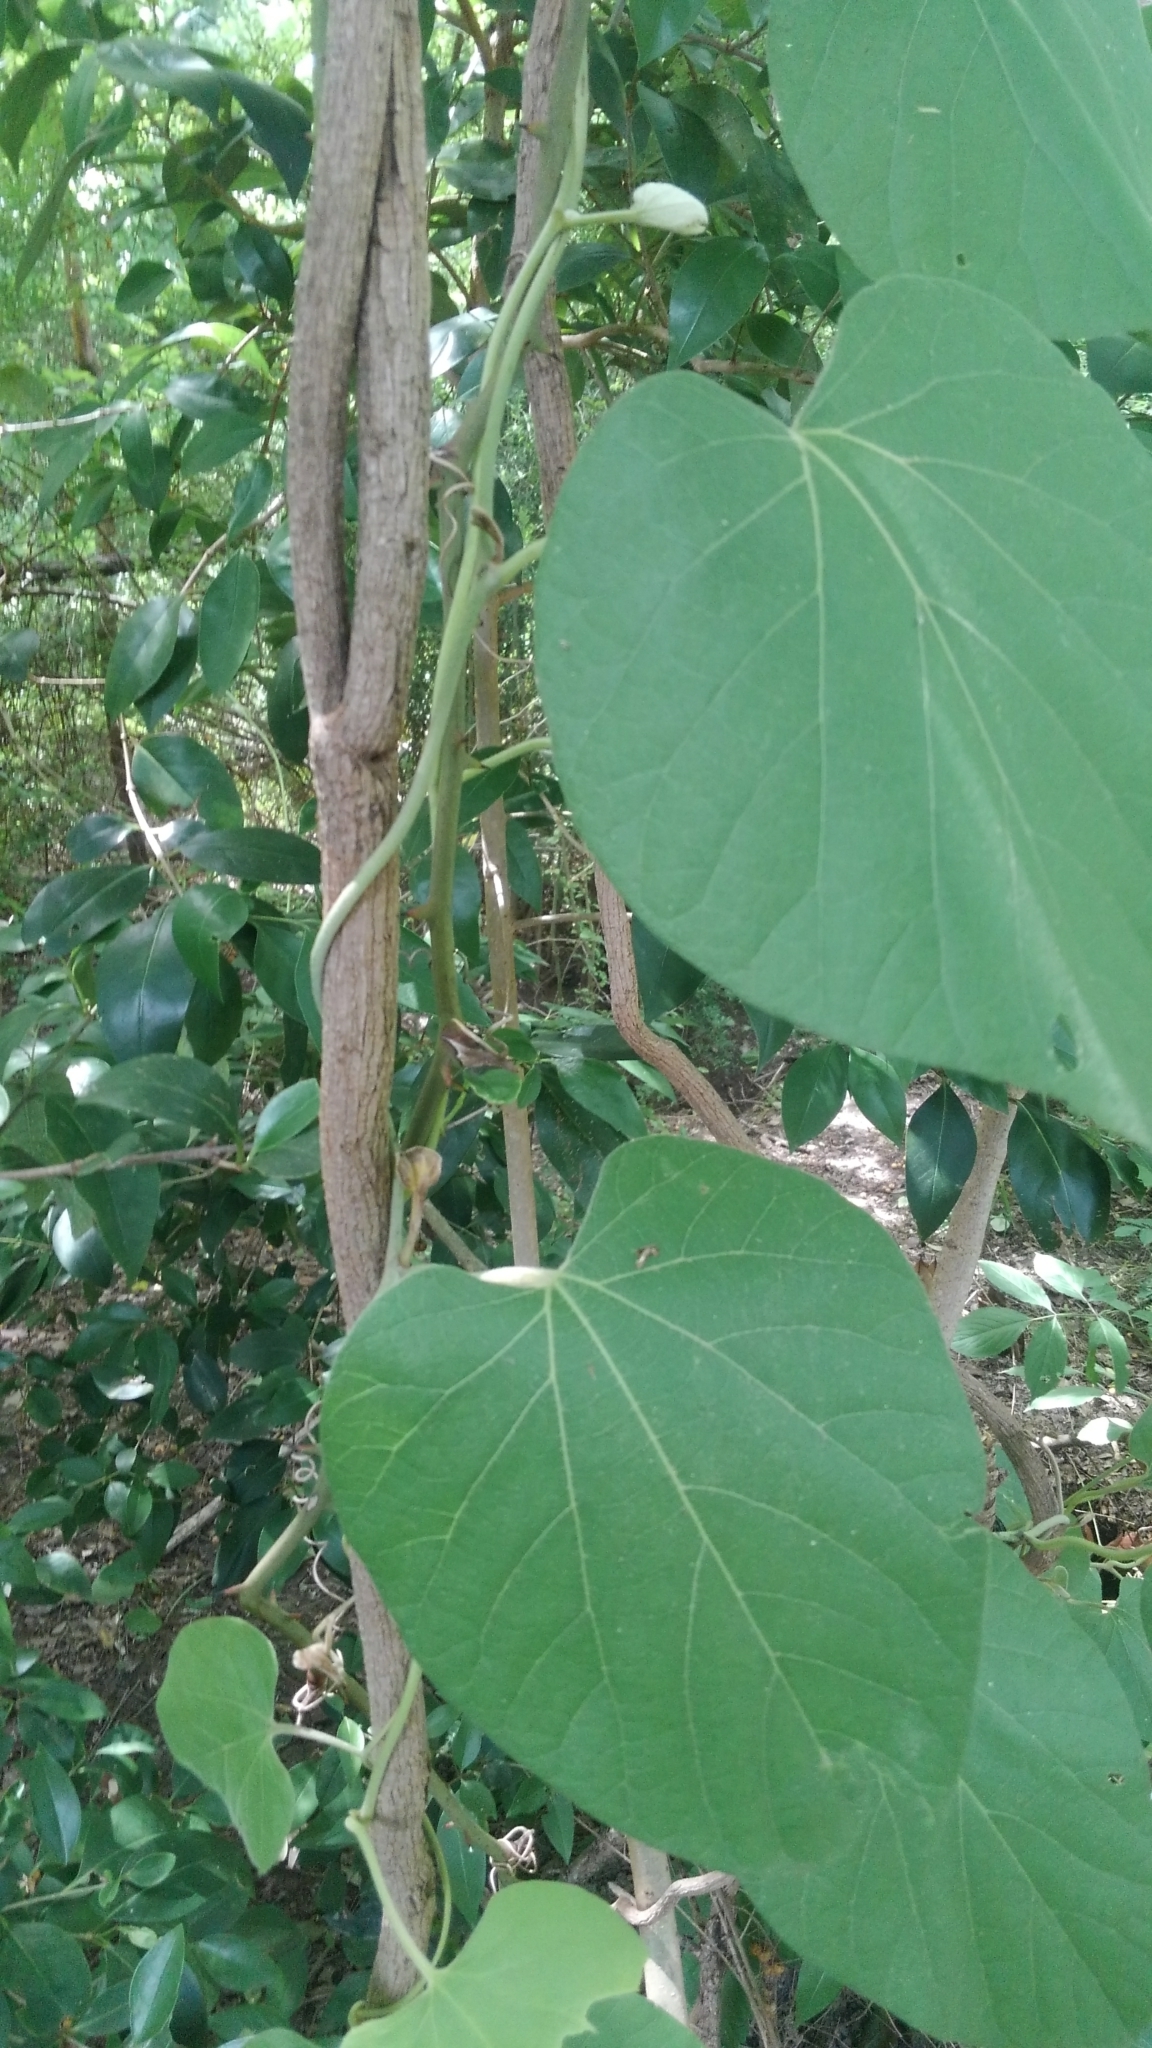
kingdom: Plantae
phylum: Tracheophyta
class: Magnoliopsida
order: Piperales
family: Aristolochiaceae
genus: Isotrema
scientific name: Isotrema tomentosum
